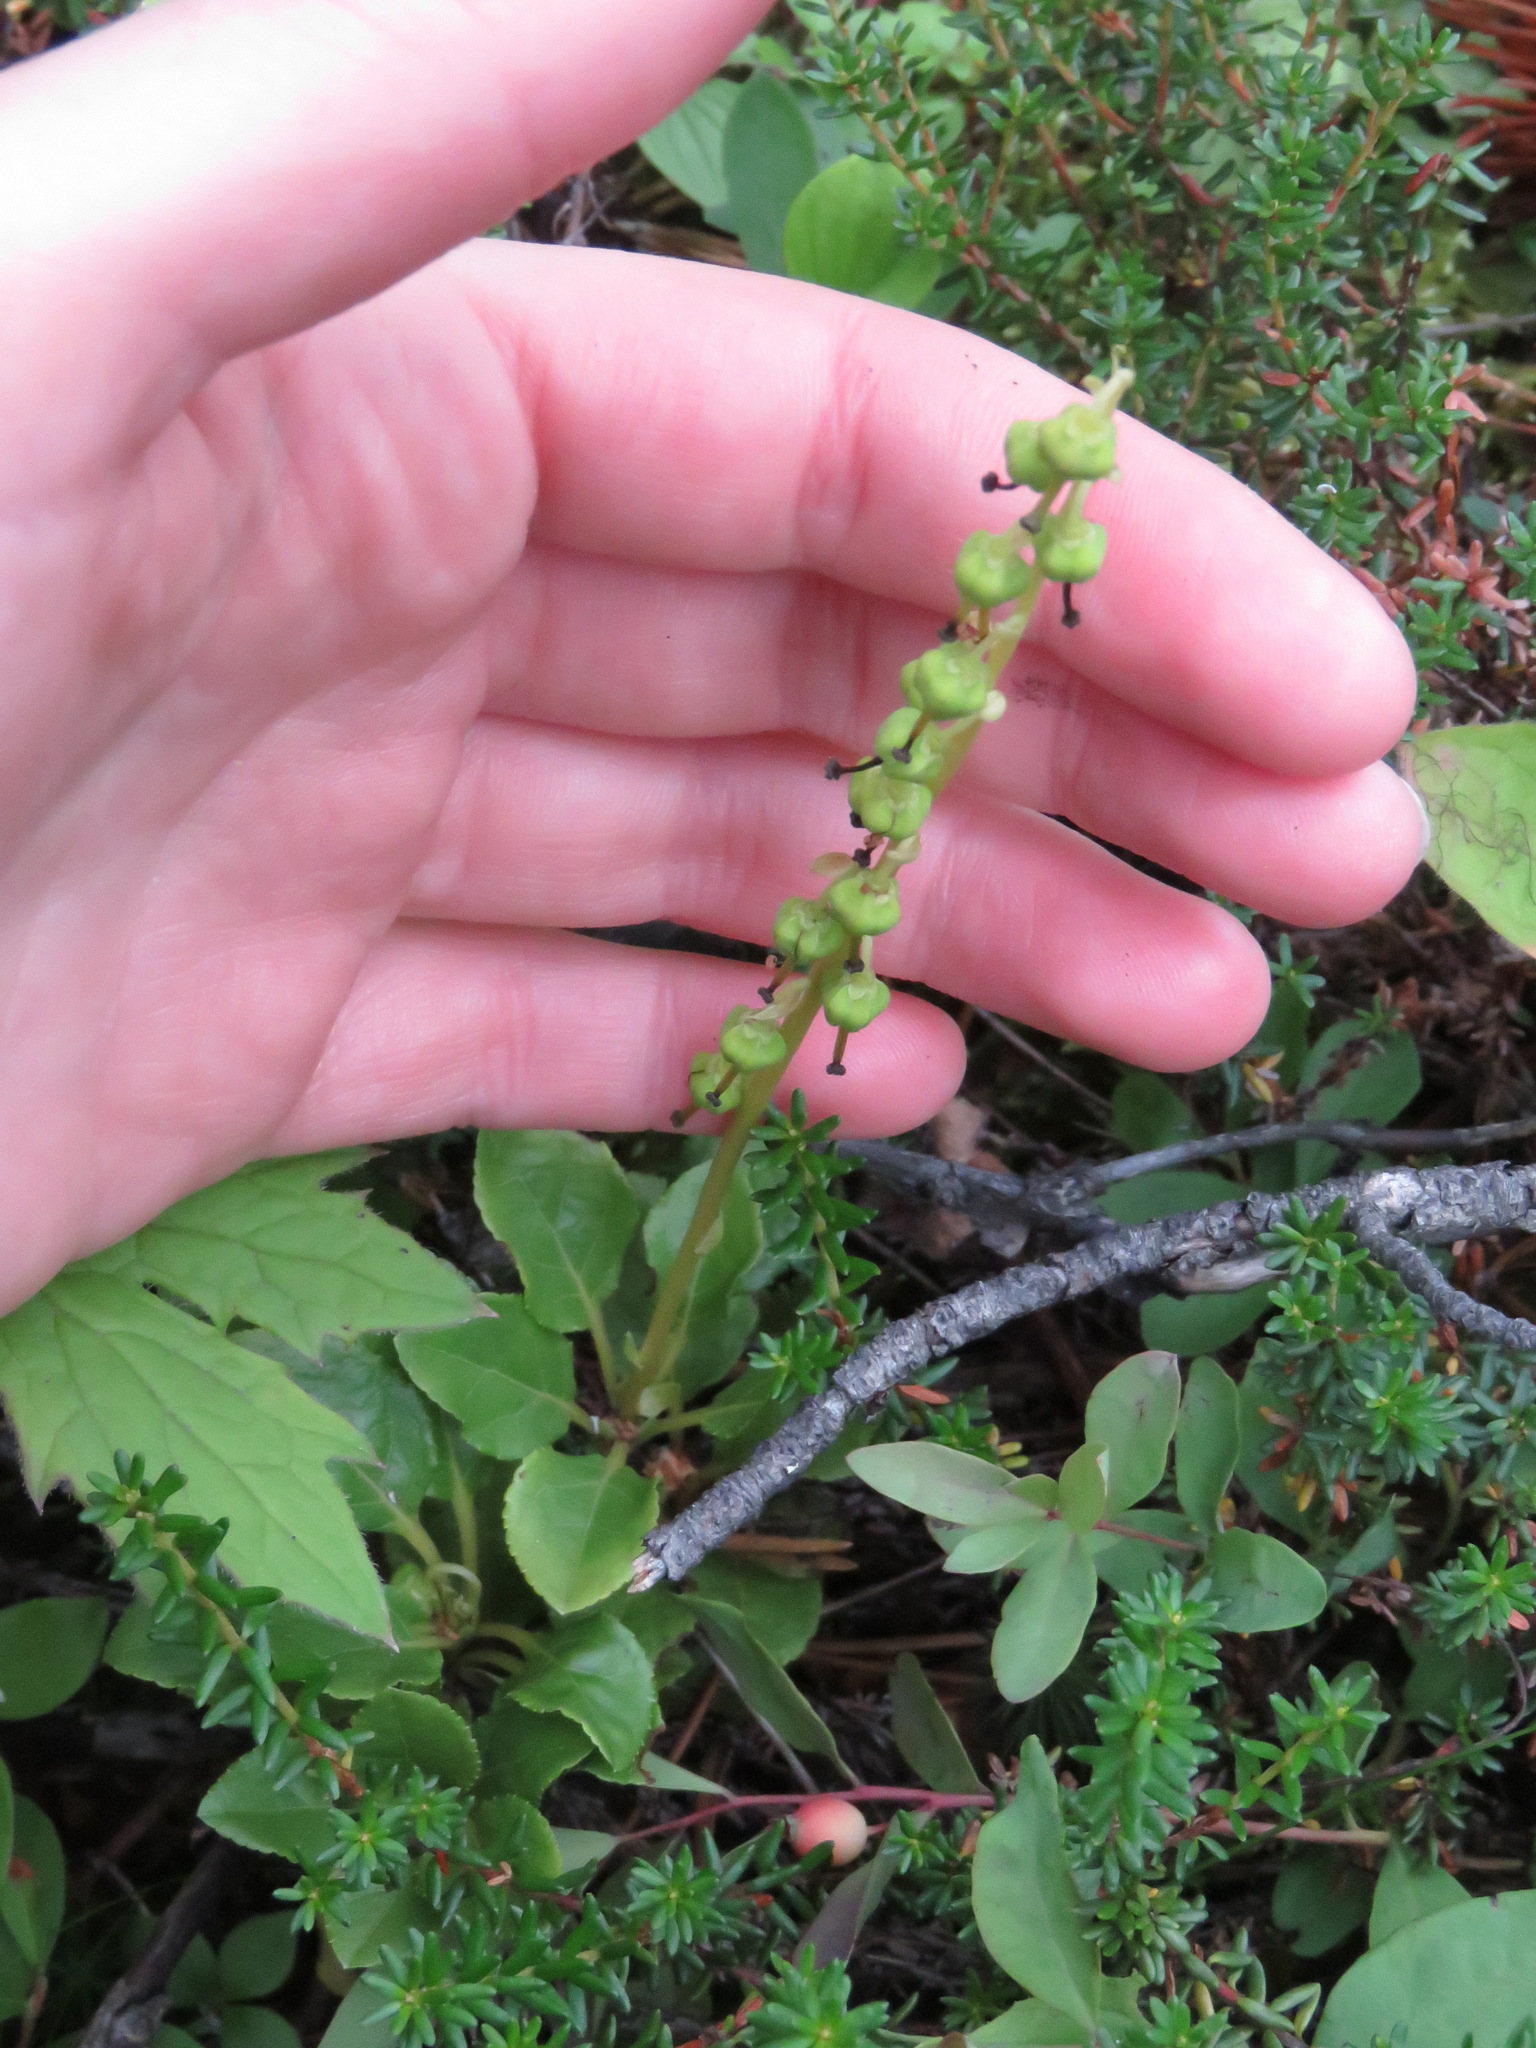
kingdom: Plantae
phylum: Tracheophyta
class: Magnoliopsida
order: Ericales
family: Ericaceae
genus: Orthilia
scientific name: Orthilia secunda
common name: One-sided orthilia
